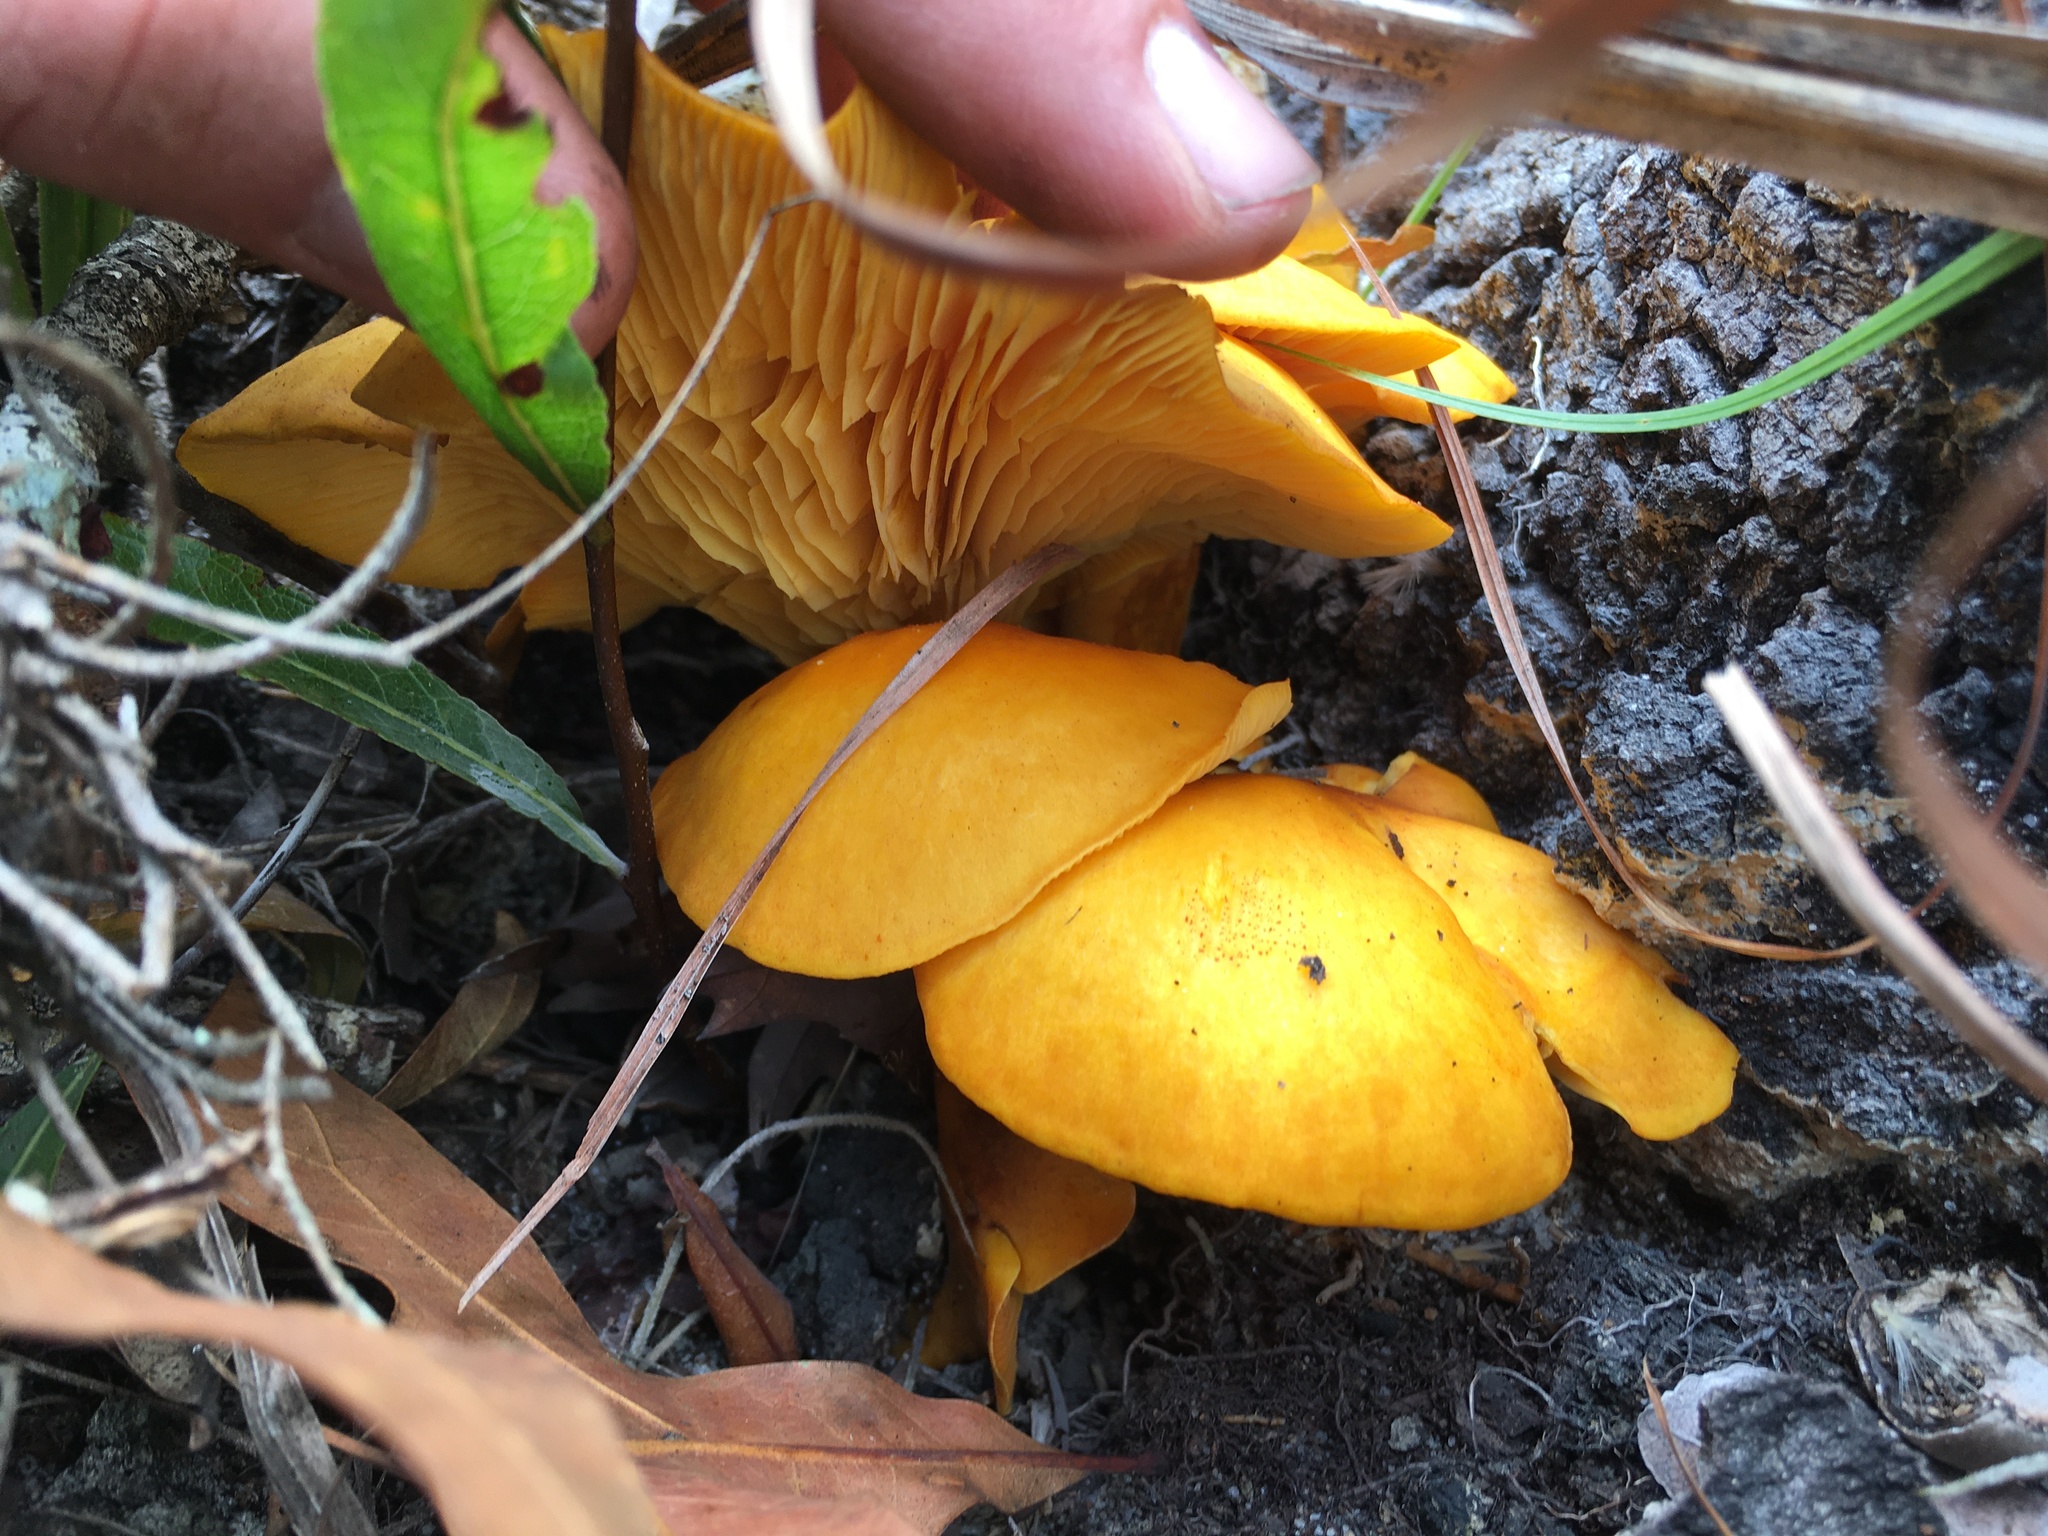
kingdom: Fungi
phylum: Basidiomycota
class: Agaricomycetes
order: Agaricales
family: Omphalotaceae
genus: Omphalotus
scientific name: Omphalotus subilludens
